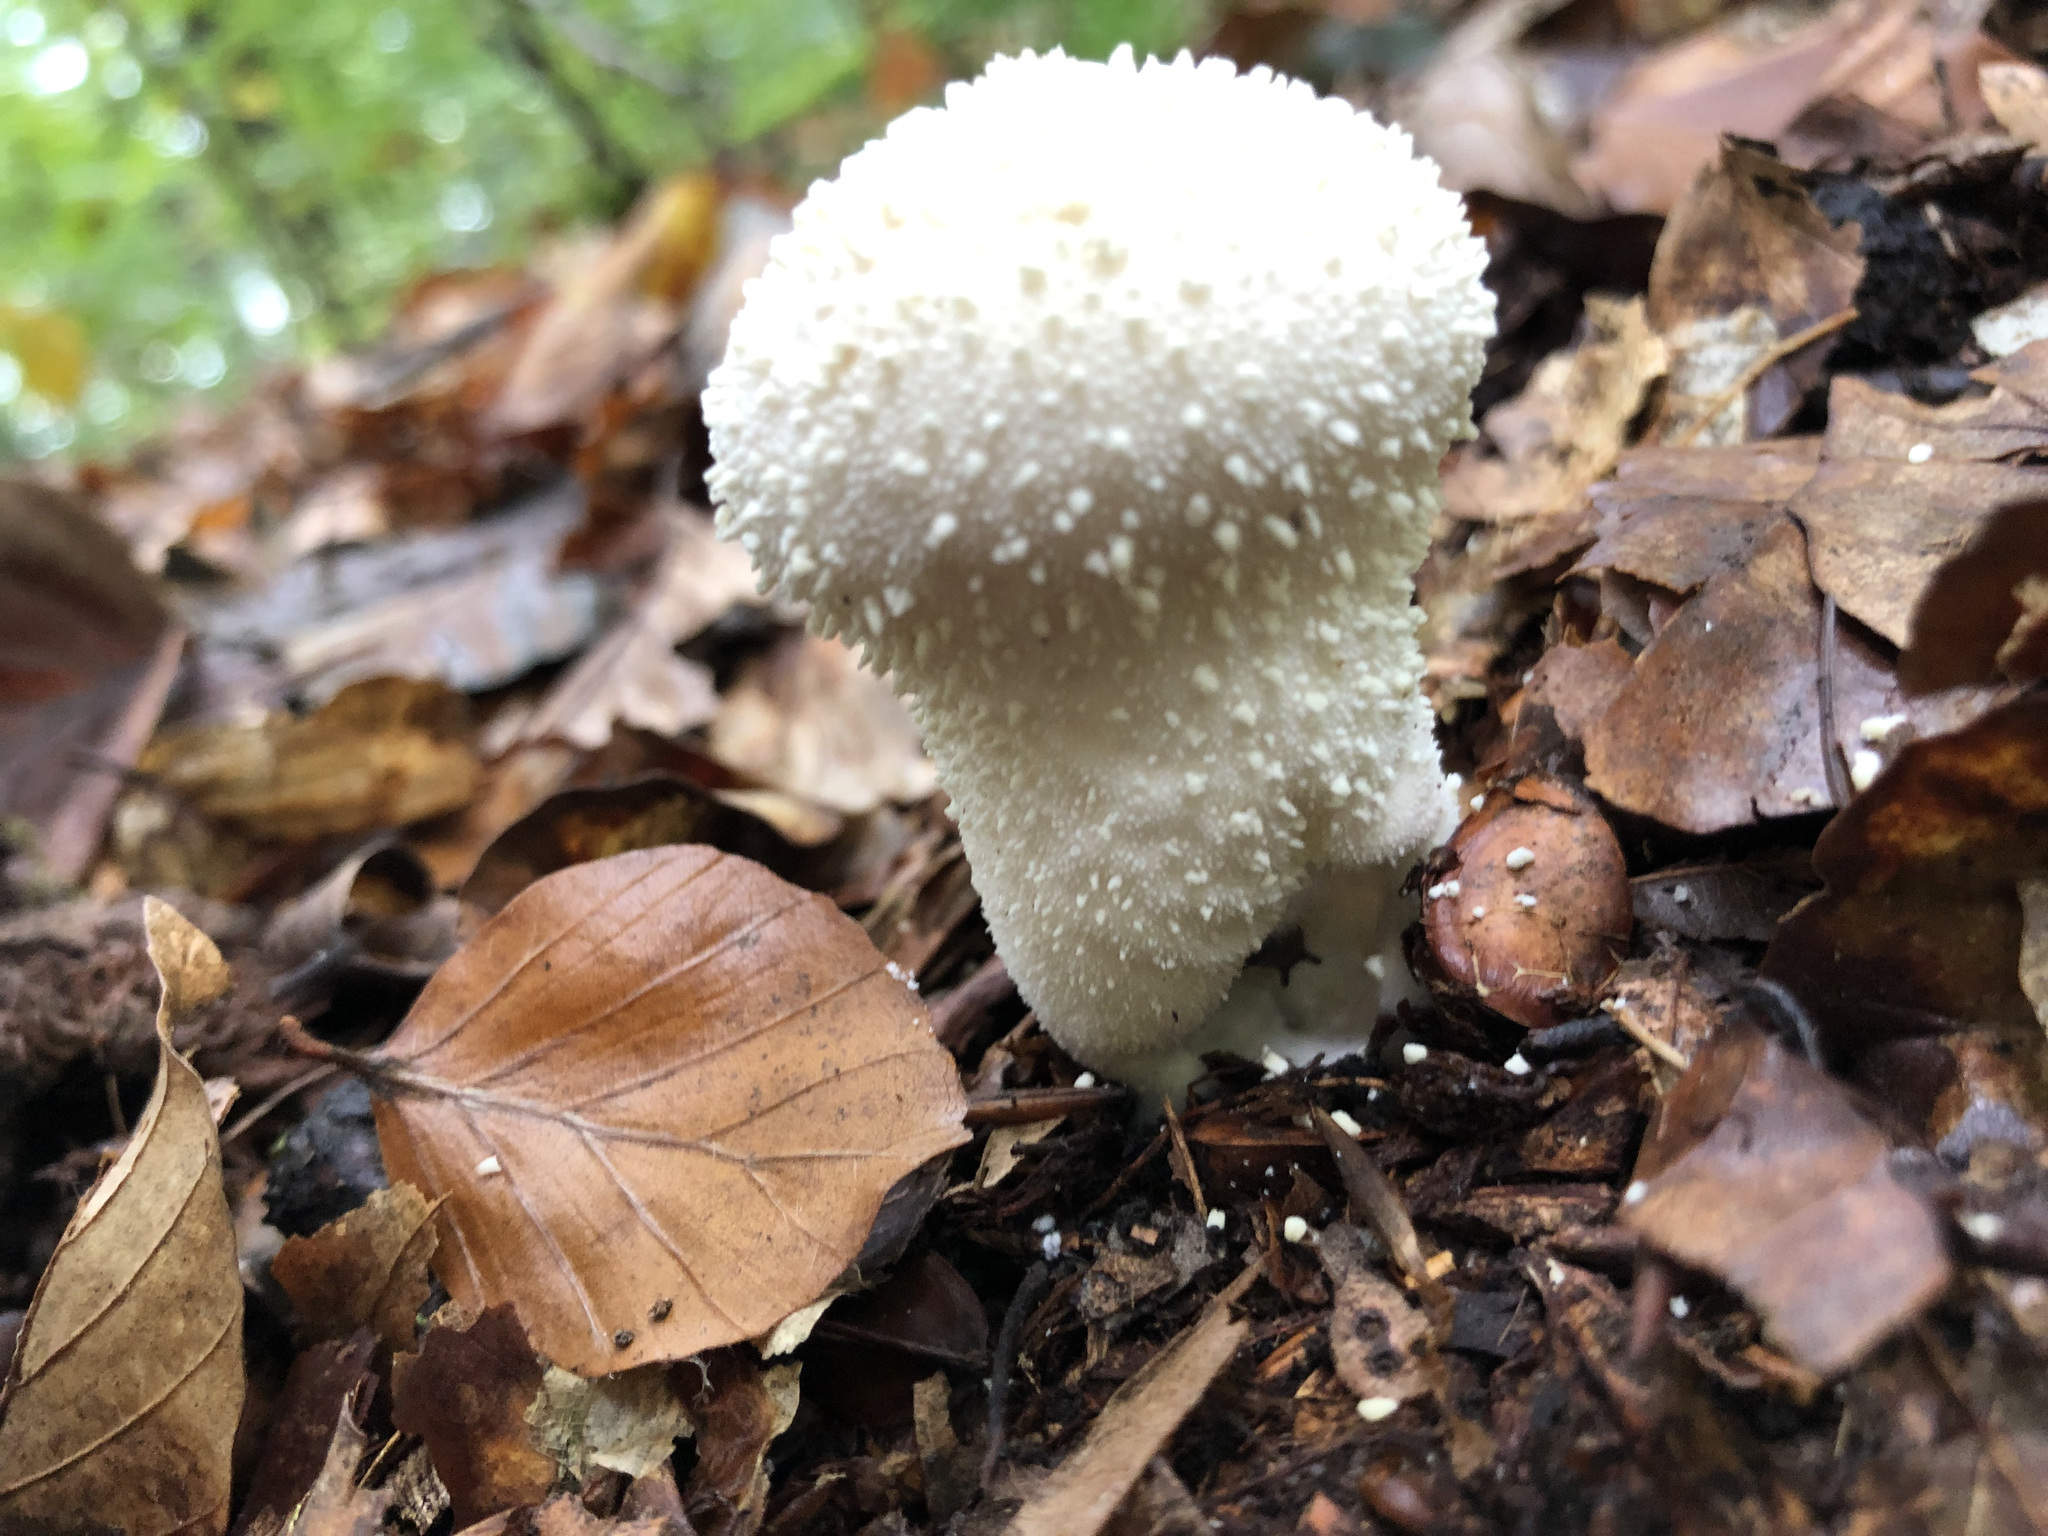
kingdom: Fungi
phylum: Basidiomycota
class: Agaricomycetes
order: Agaricales
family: Lycoperdaceae
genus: Lycoperdon
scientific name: Lycoperdon perlatum
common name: Common puffball
